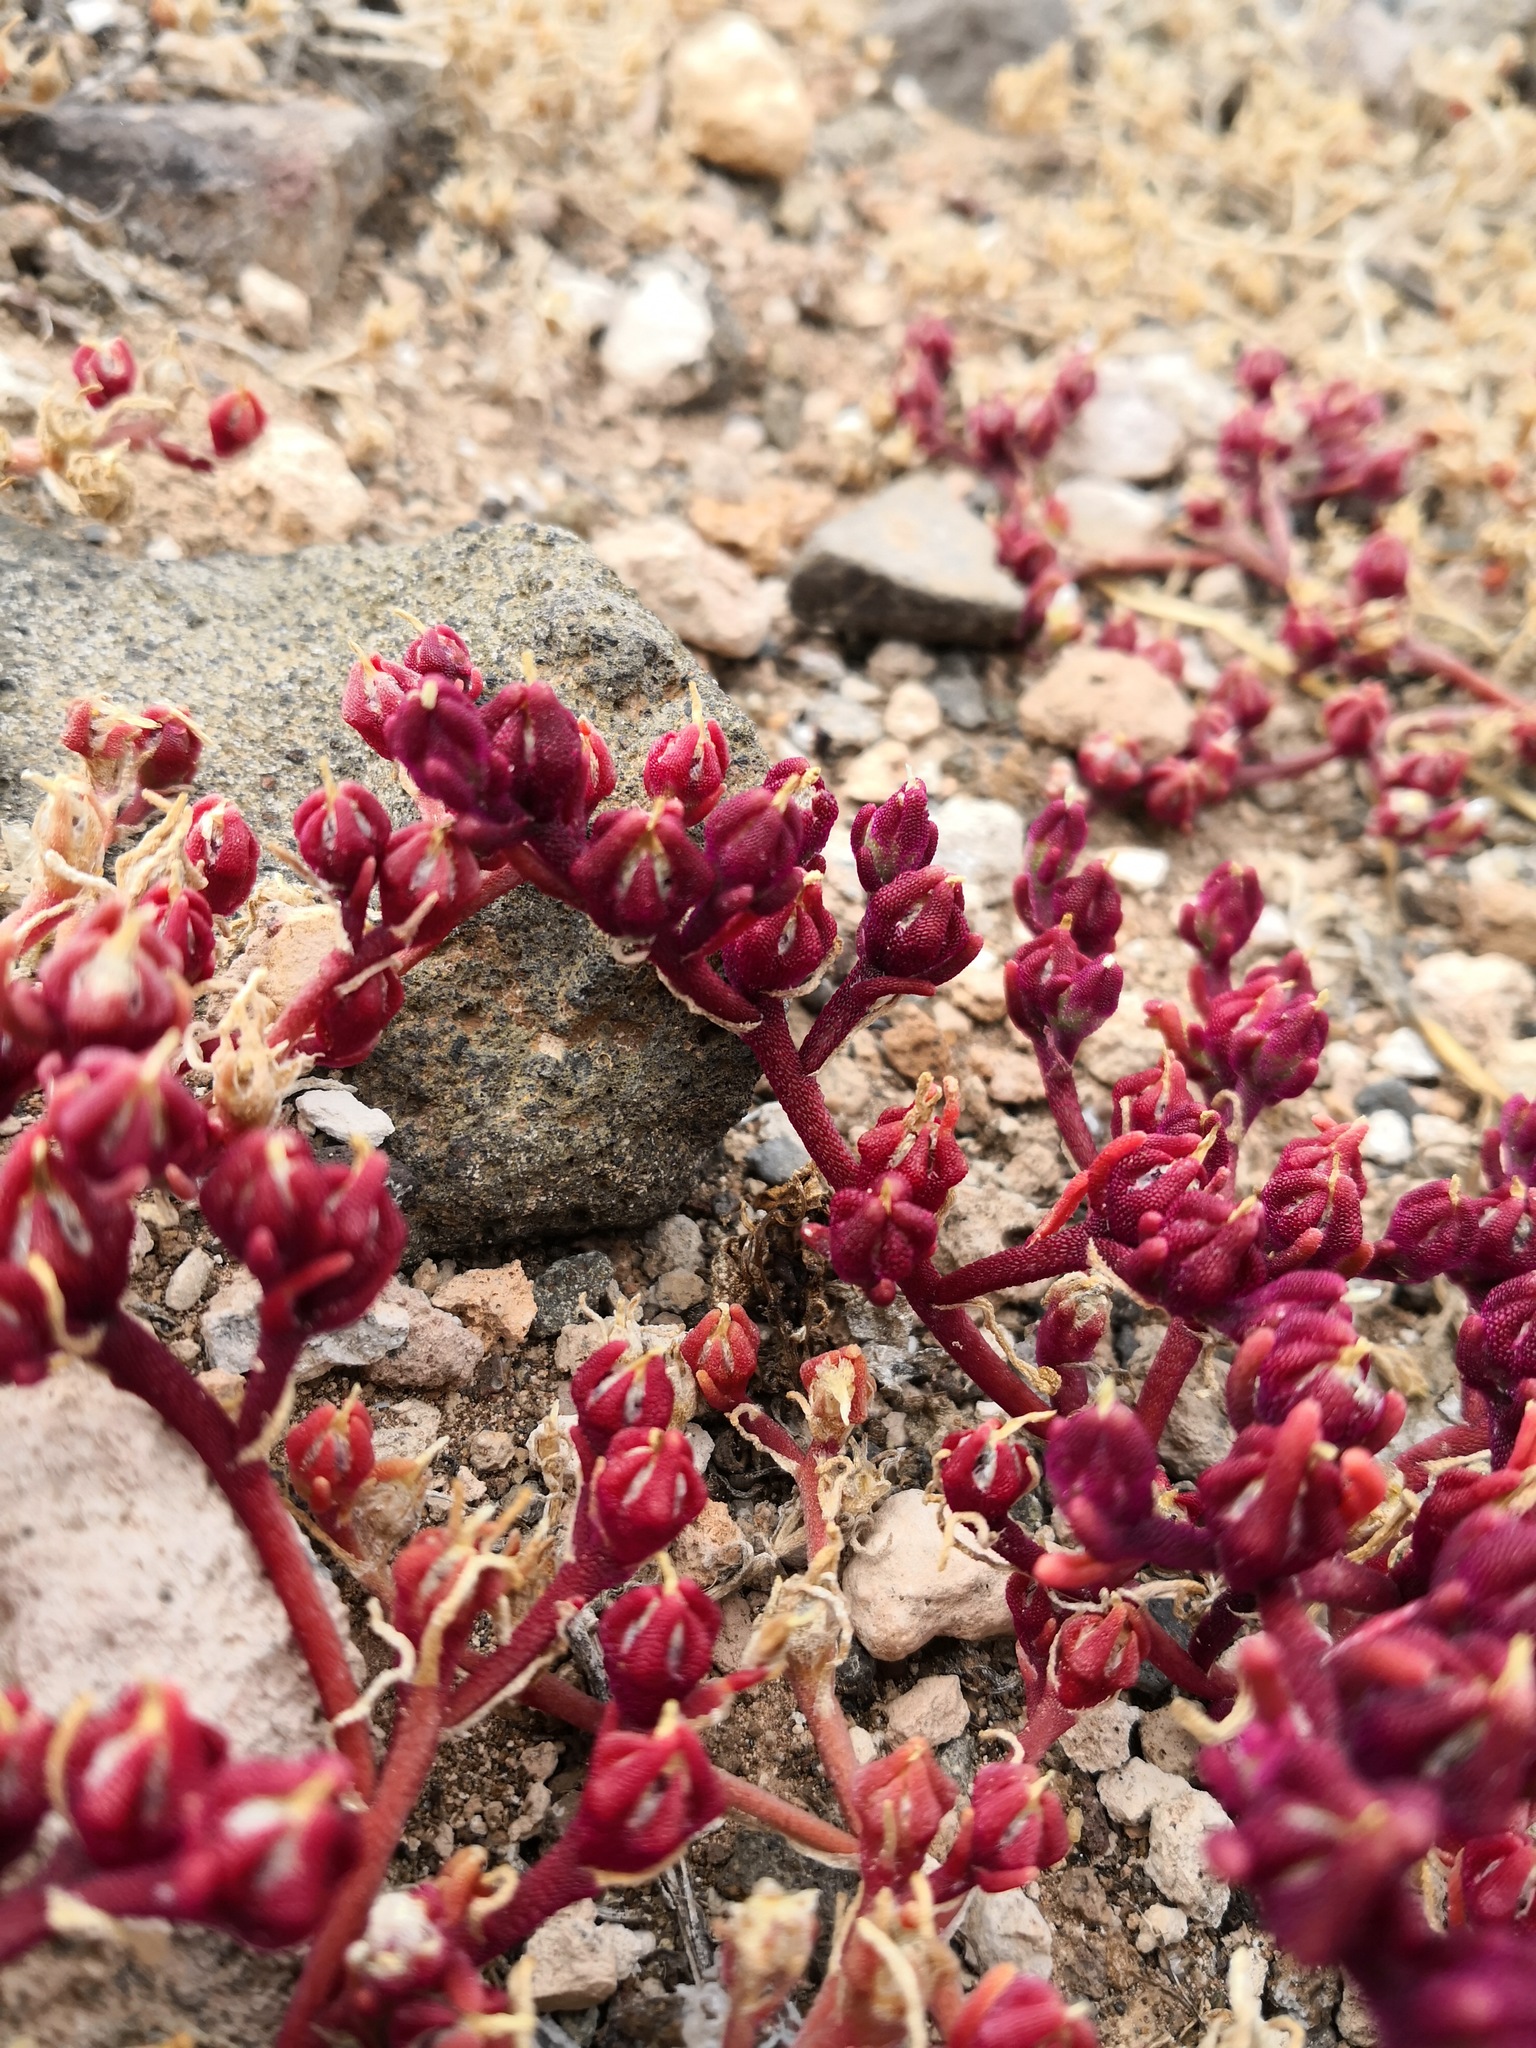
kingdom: Plantae
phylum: Tracheophyta
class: Magnoliopsida
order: Caryophyllales
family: Aizoaceae
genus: Mesembryanthemum
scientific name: Mesembryanthemum nodiflorum
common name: Slenderleaf iceplant
